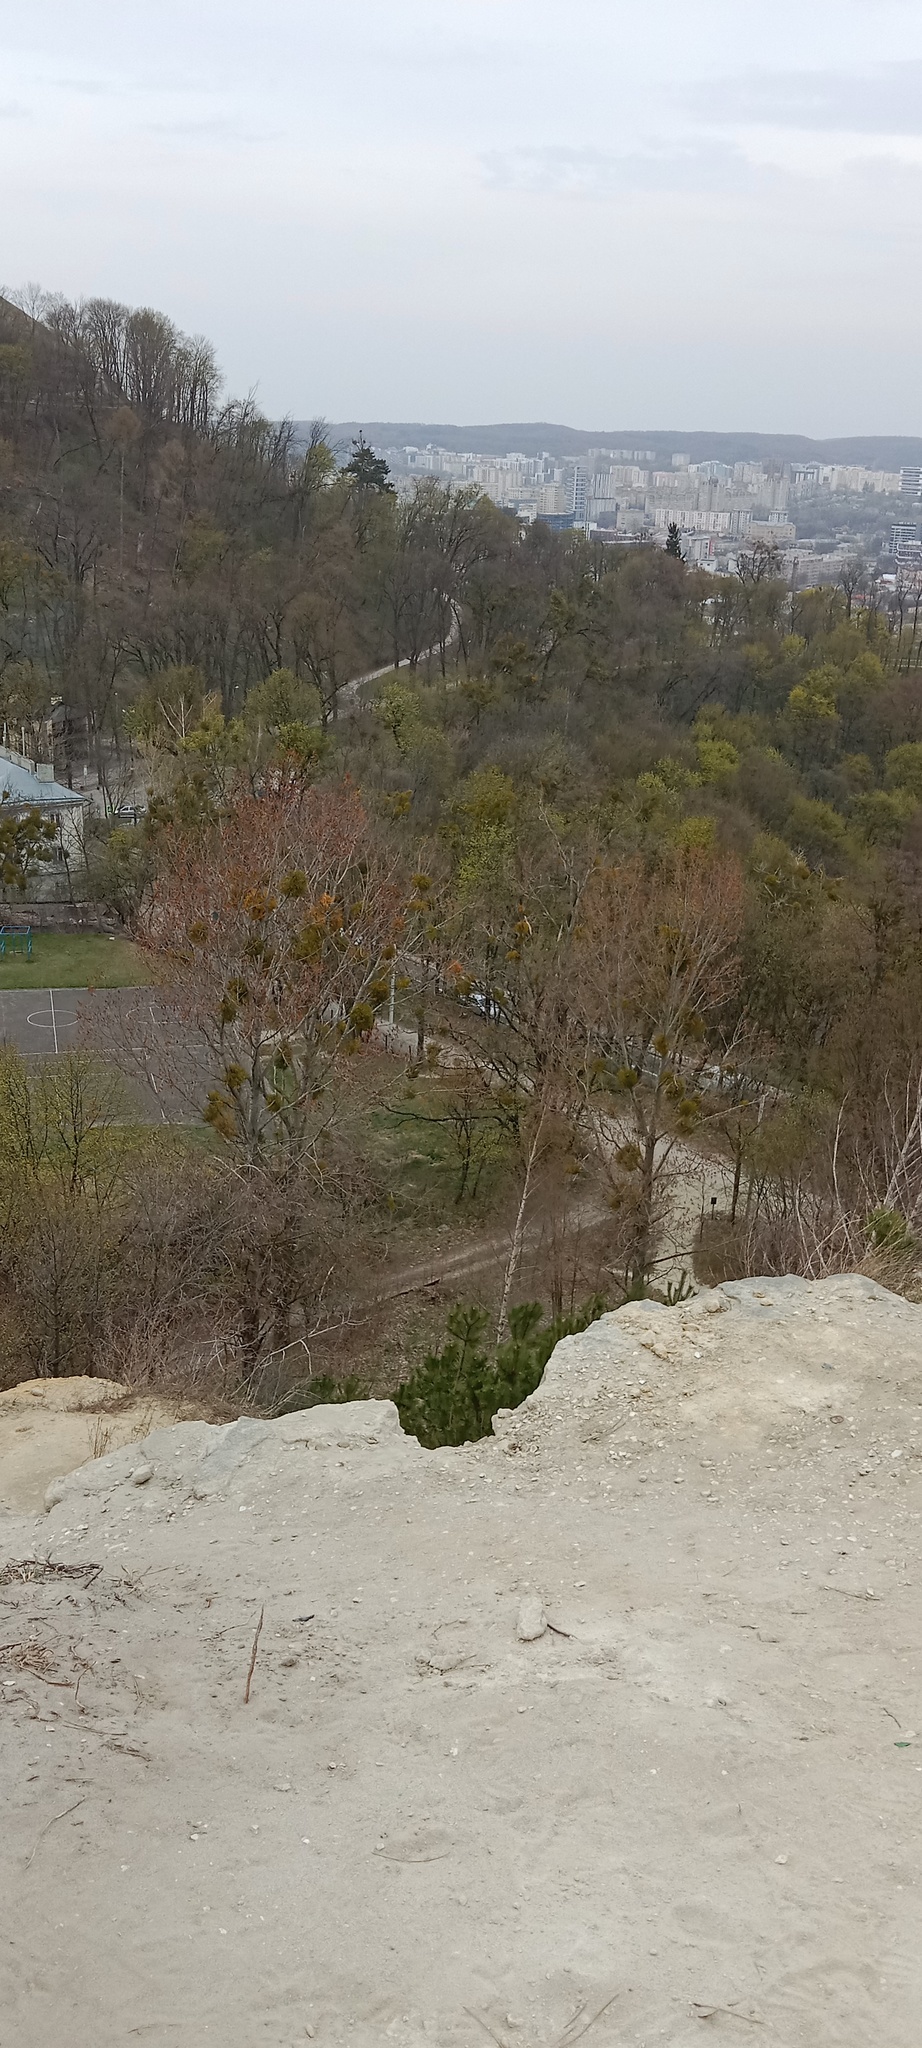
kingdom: Plantae
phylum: Tracheophyta
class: Magnoliopsida
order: Santalales
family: Viscaceae
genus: Viscum
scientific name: Viscum album
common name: Mistletoe
